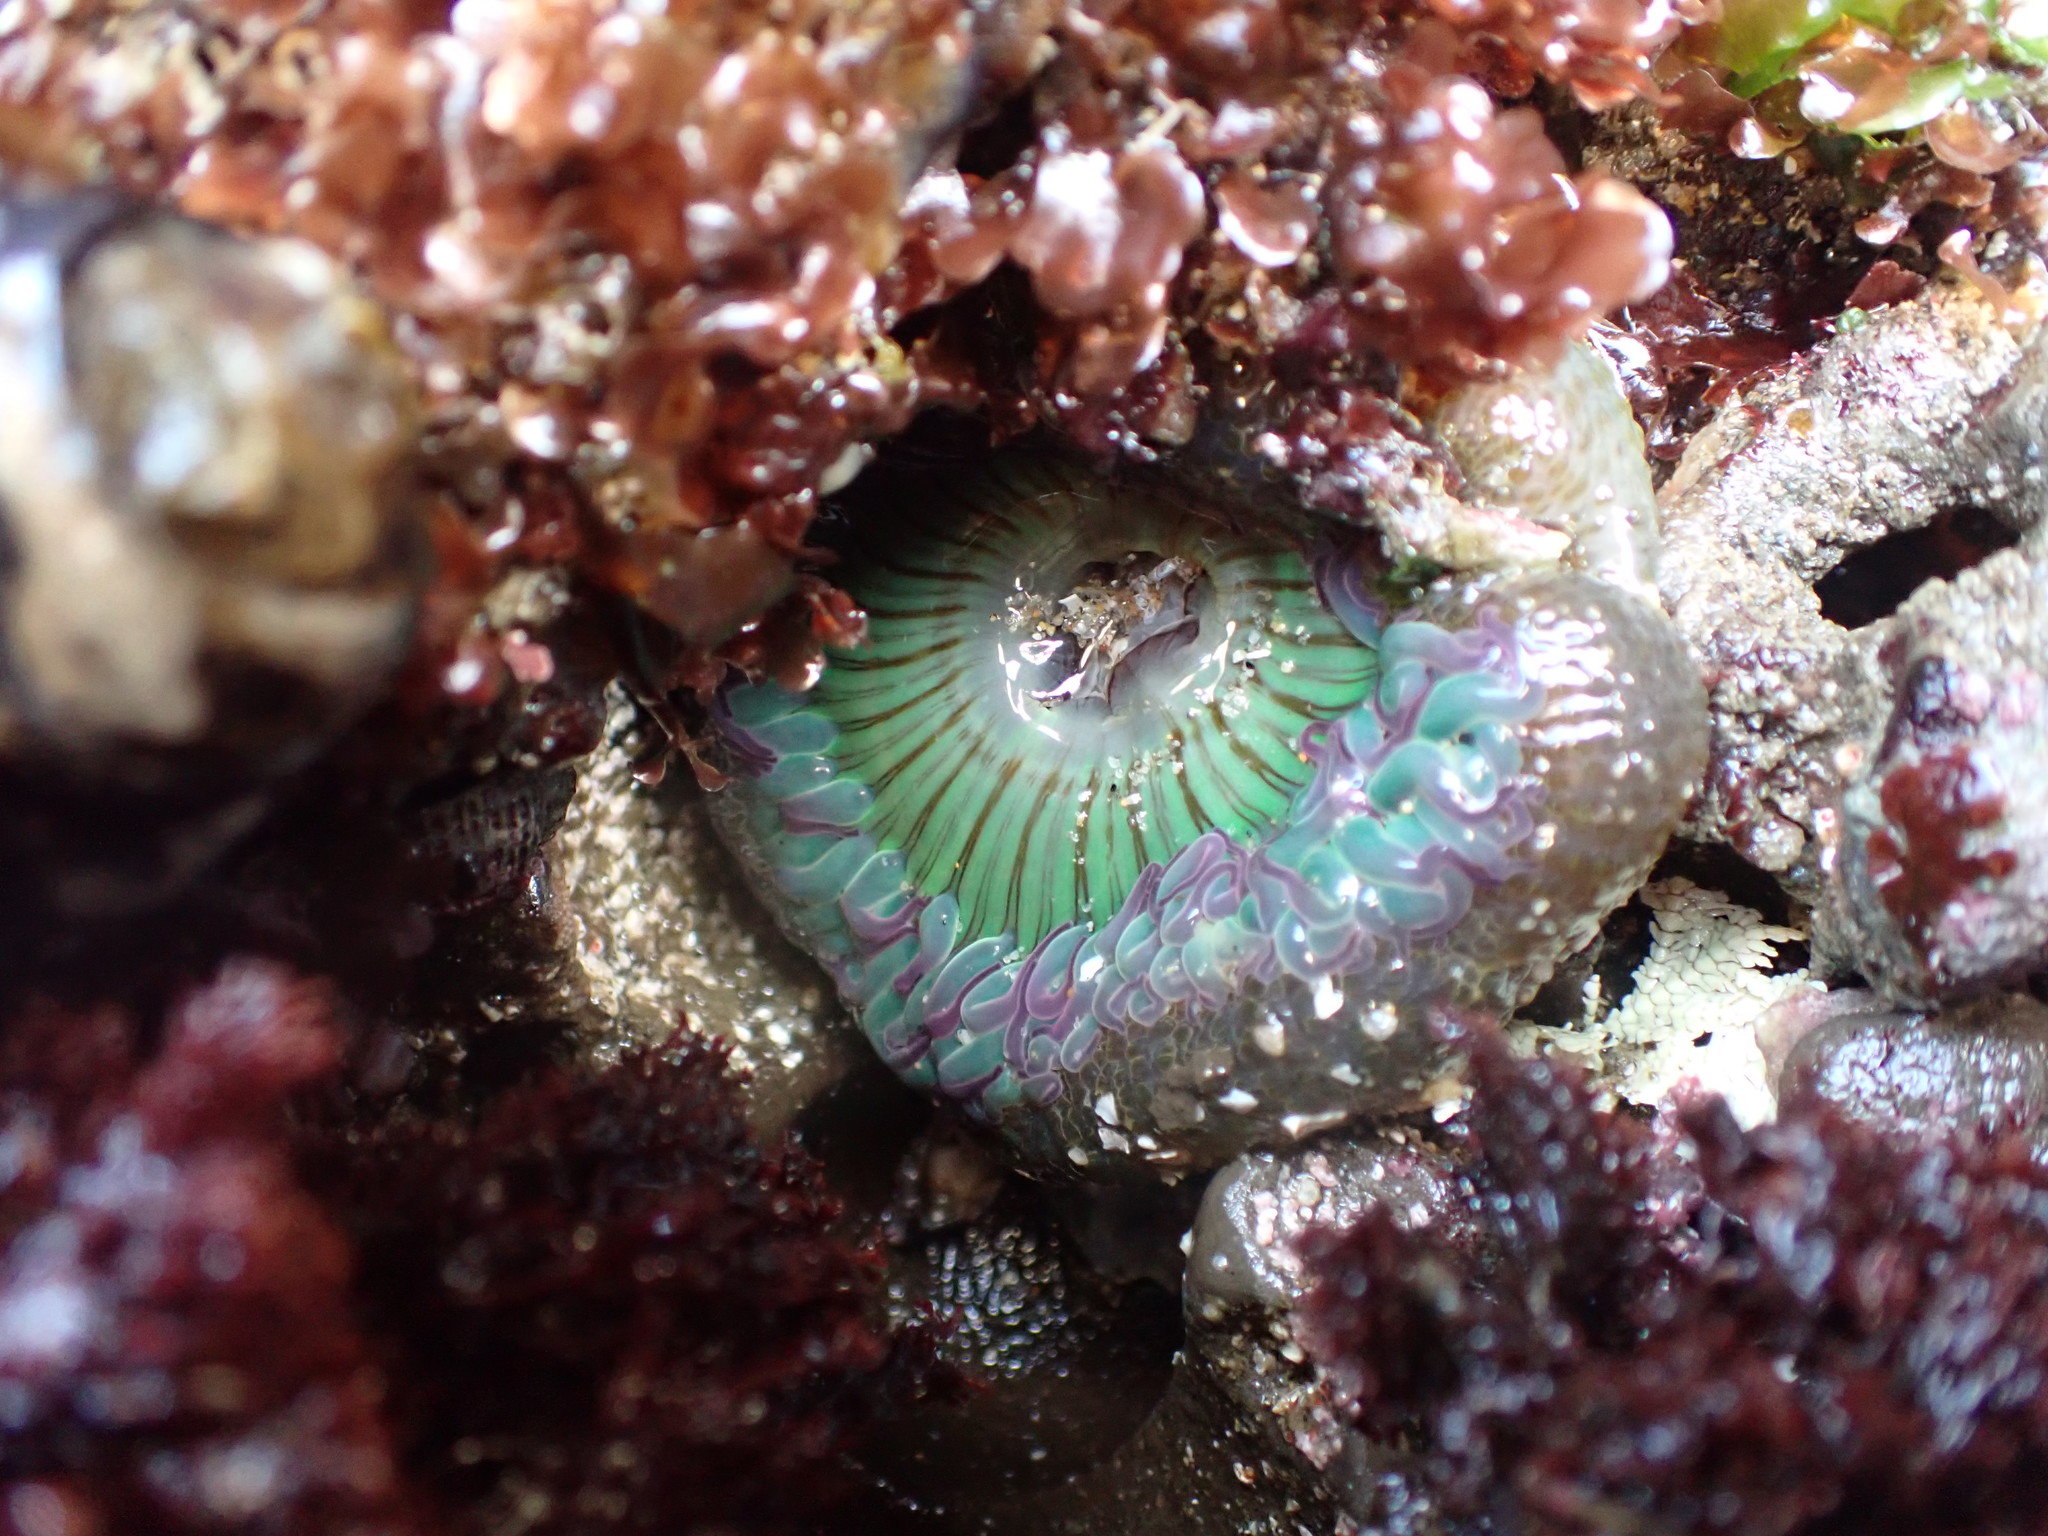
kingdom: Animalia
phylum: Cnidaria
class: Anthozoa
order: Actiniaria
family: Actiniidae
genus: Anthopleura
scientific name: Anthopleura sola
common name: Sun anemone
